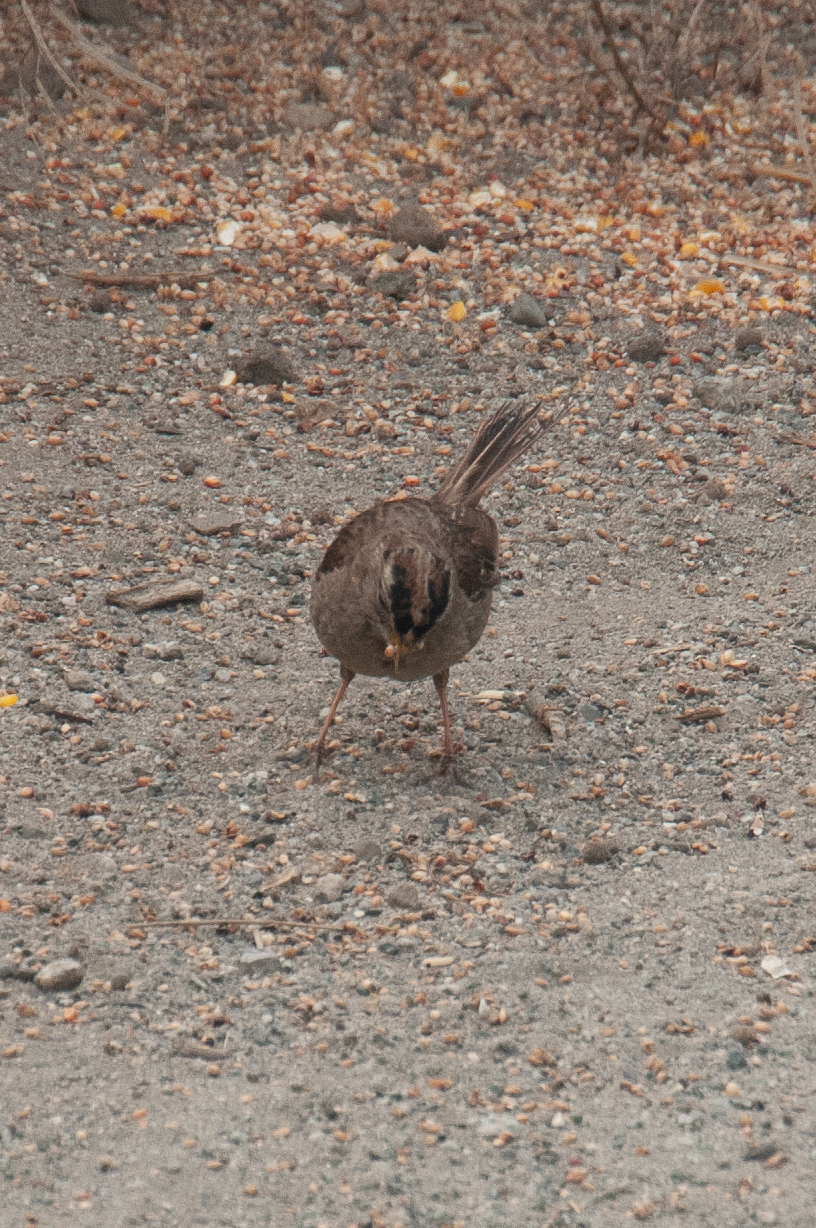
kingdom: Animalia
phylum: Chordata
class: Aves
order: Passeriformes
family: Passerellidae
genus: Zonotrichia
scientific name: Zonotrichia leucophrys
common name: White-crowned sparrow
